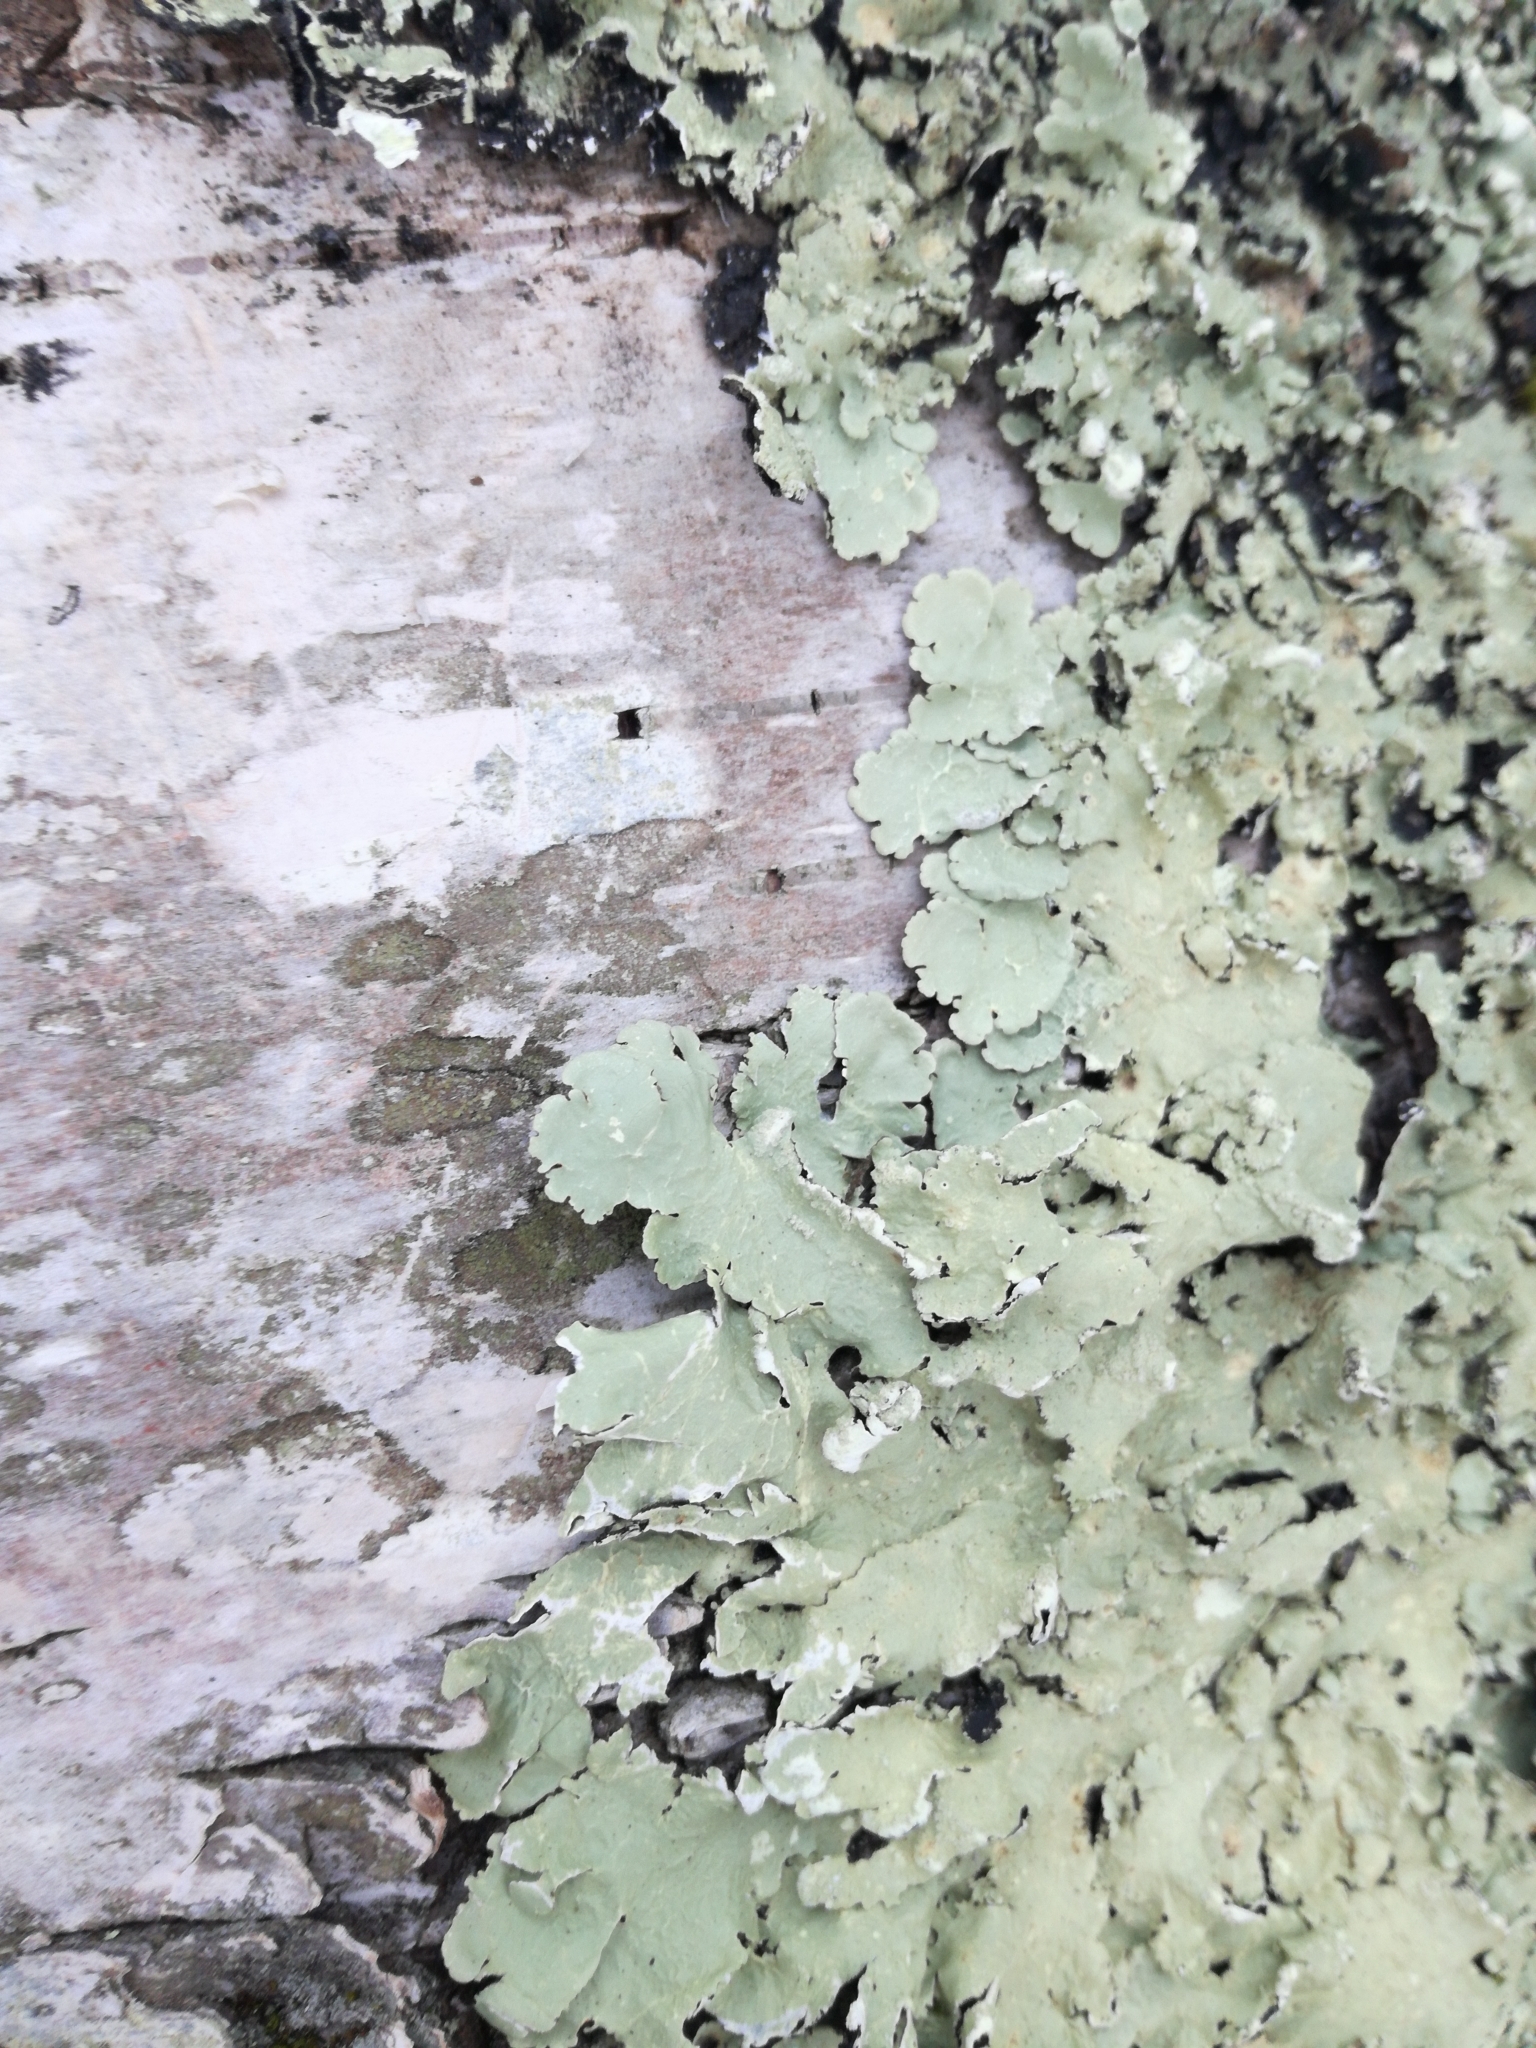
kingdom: Fungi
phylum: Ascomycota
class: Lecanoromycetes
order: Lecanorales
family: Parmeliaceae
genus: Flavoparmelia
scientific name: Flavoparmelia caperata
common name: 40-mile per hour lichen
